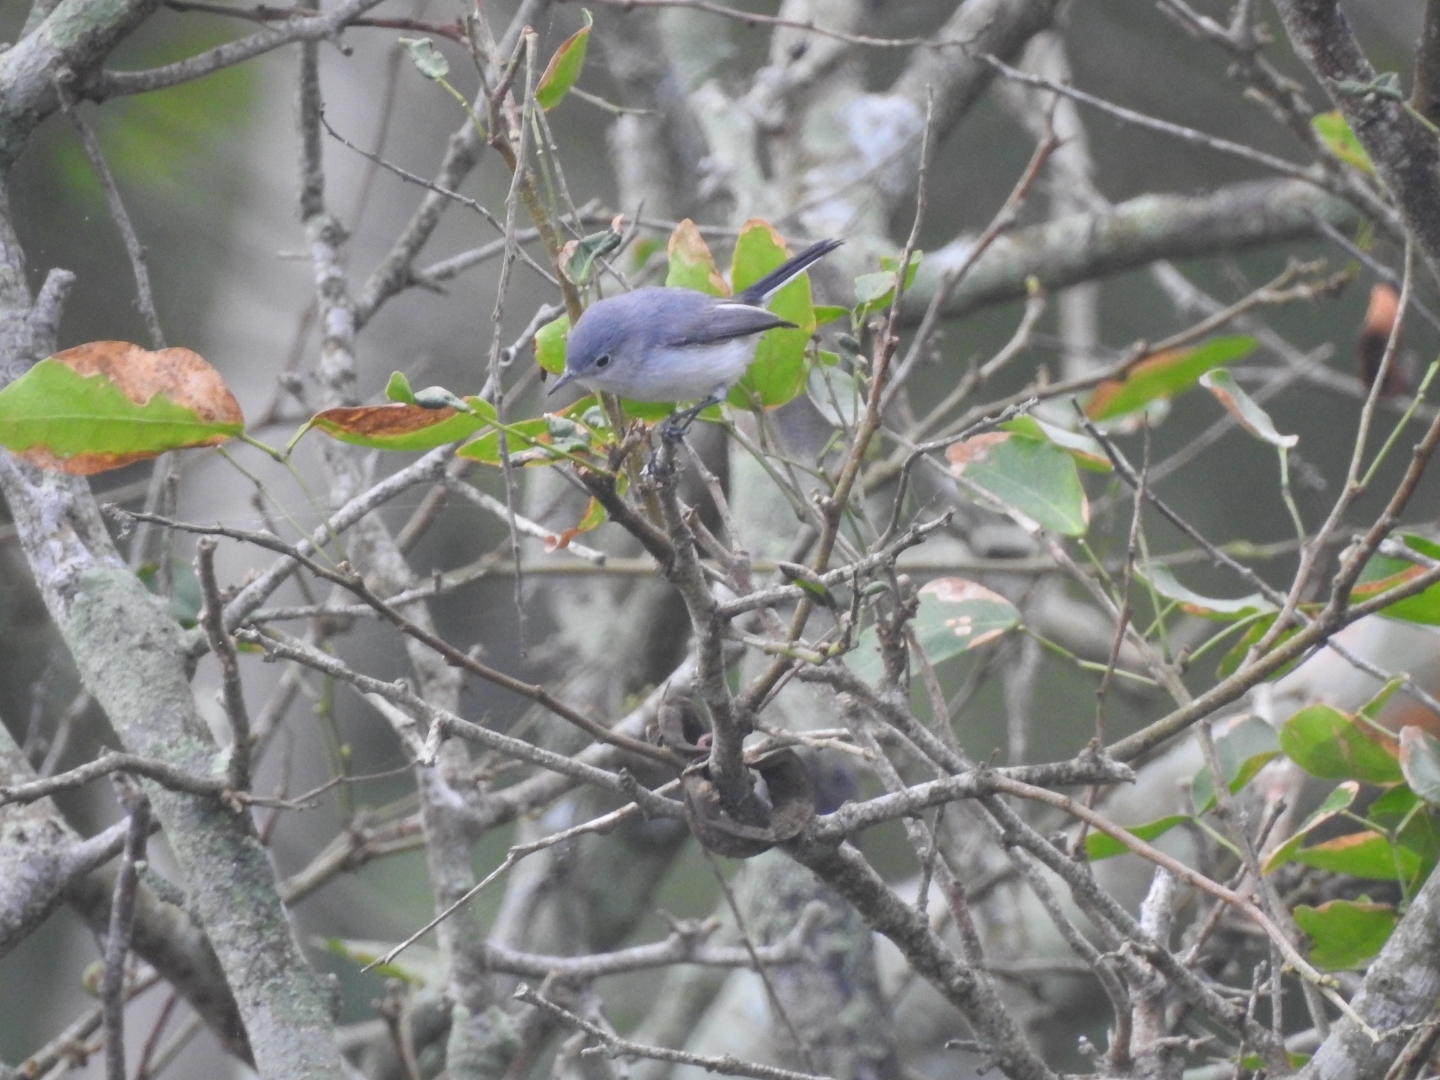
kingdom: Animalia
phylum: Chordata
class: Aves
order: Passeriformes
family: Polioptilidae
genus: Polioptila
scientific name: Polioptila caerulea
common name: Blue-gray gnatcatcher
